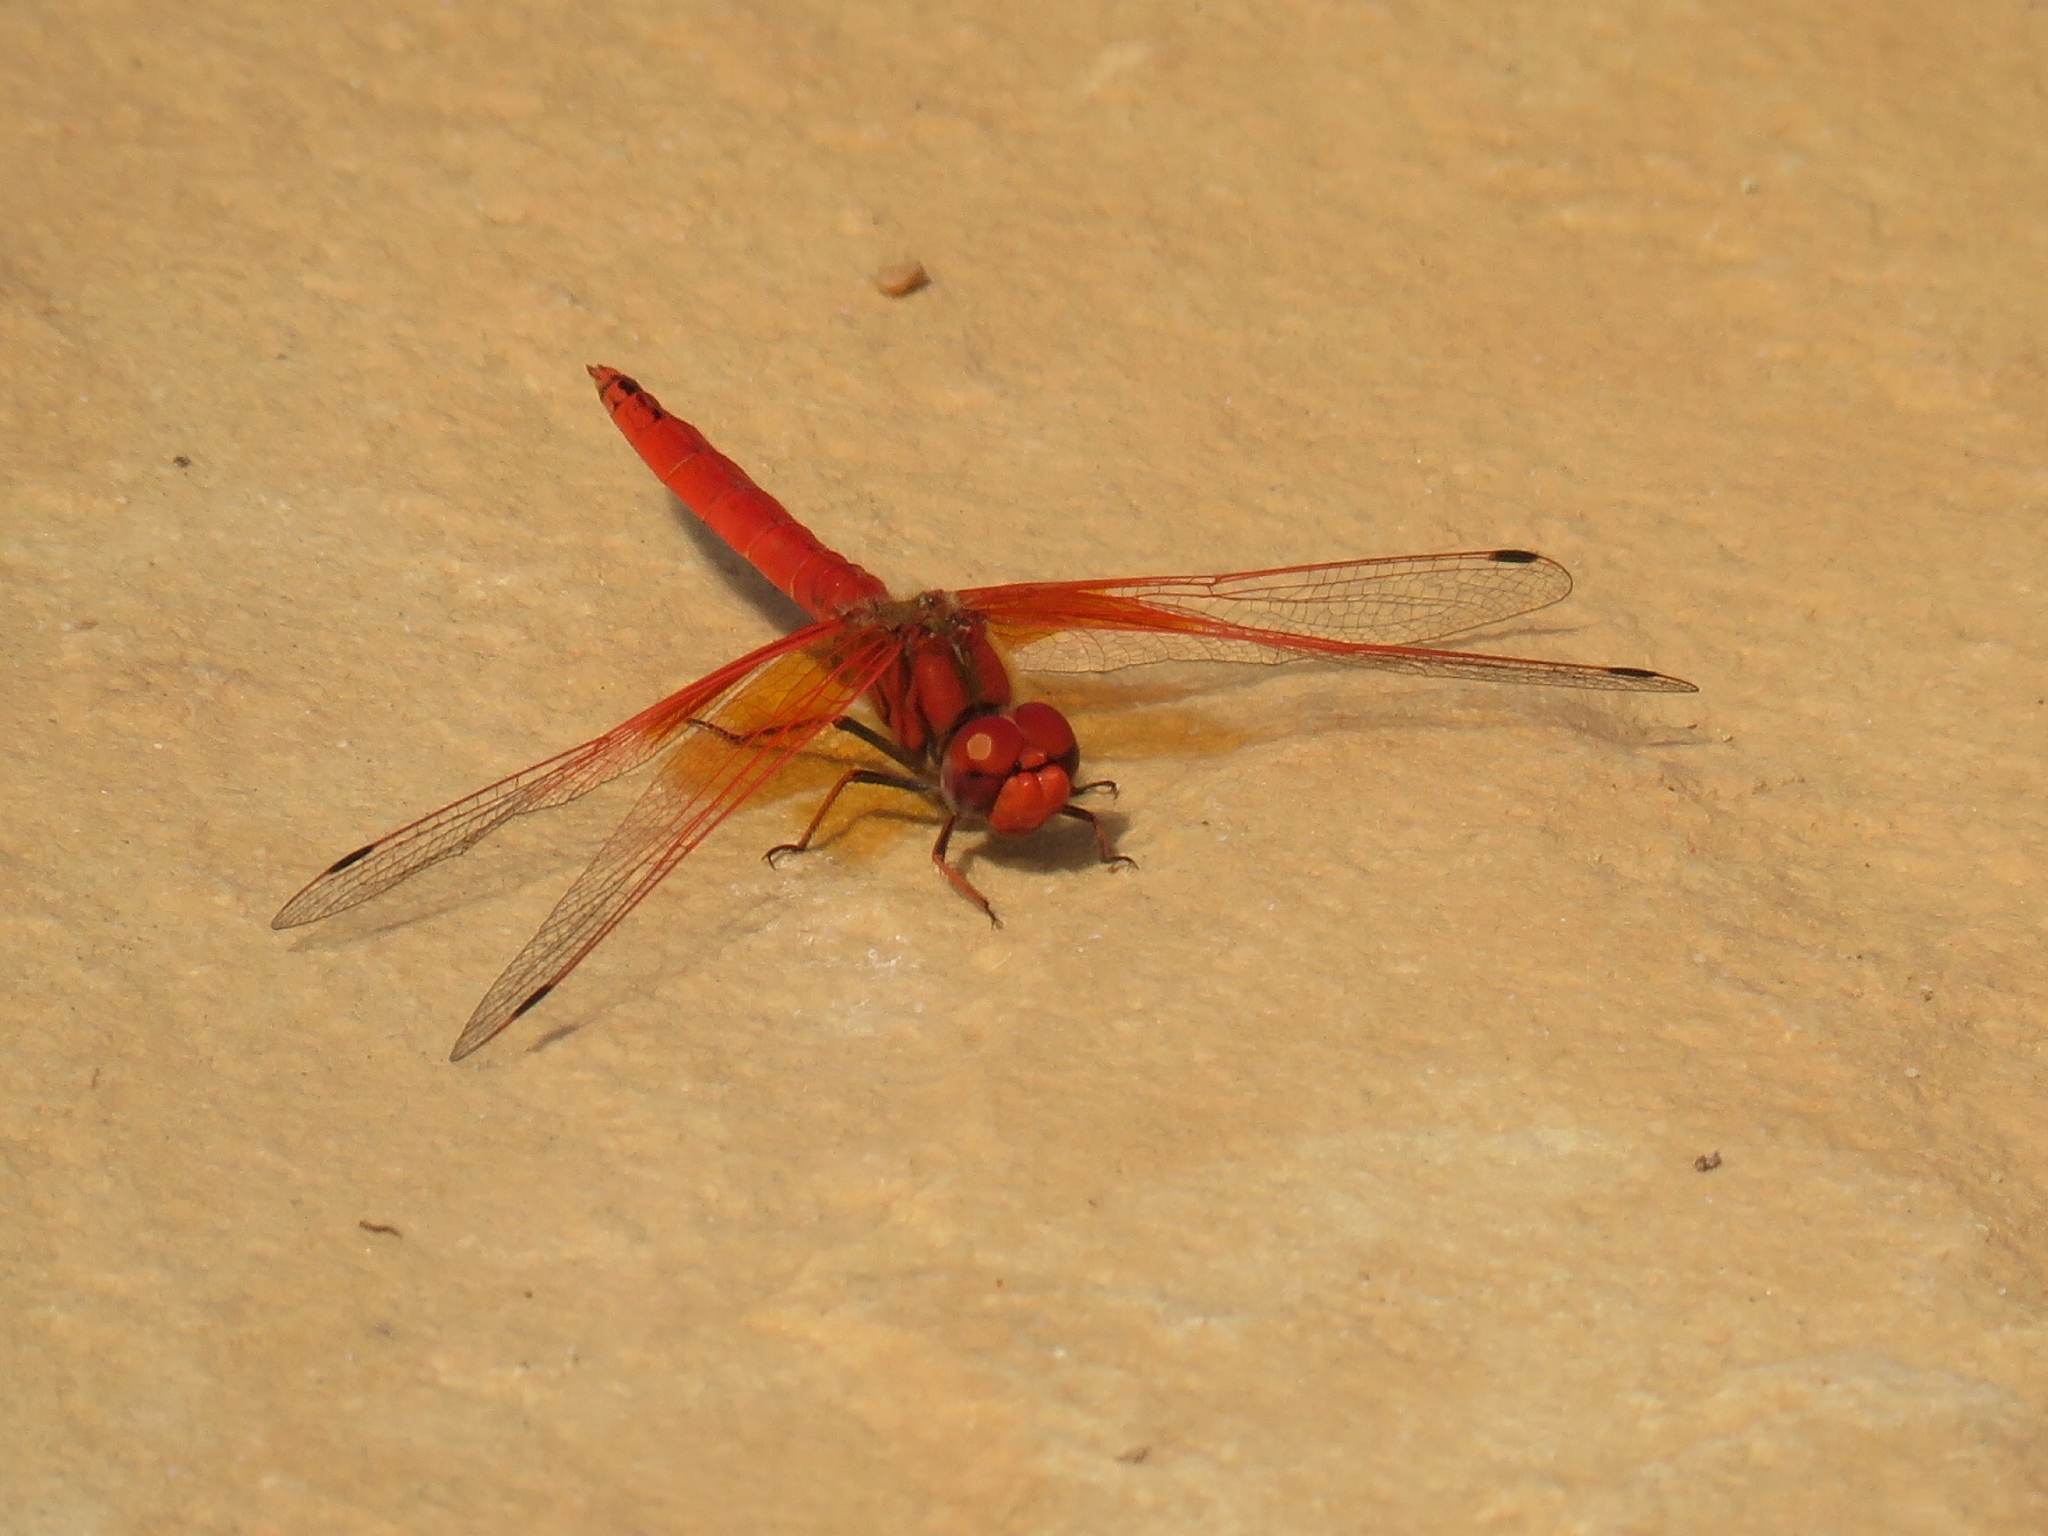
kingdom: Animalia
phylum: Arthropoda
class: Insecta
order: Odonata
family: Libellulidae
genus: Trithemis
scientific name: Trithemis kirbyi
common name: Kirby's dropwing
